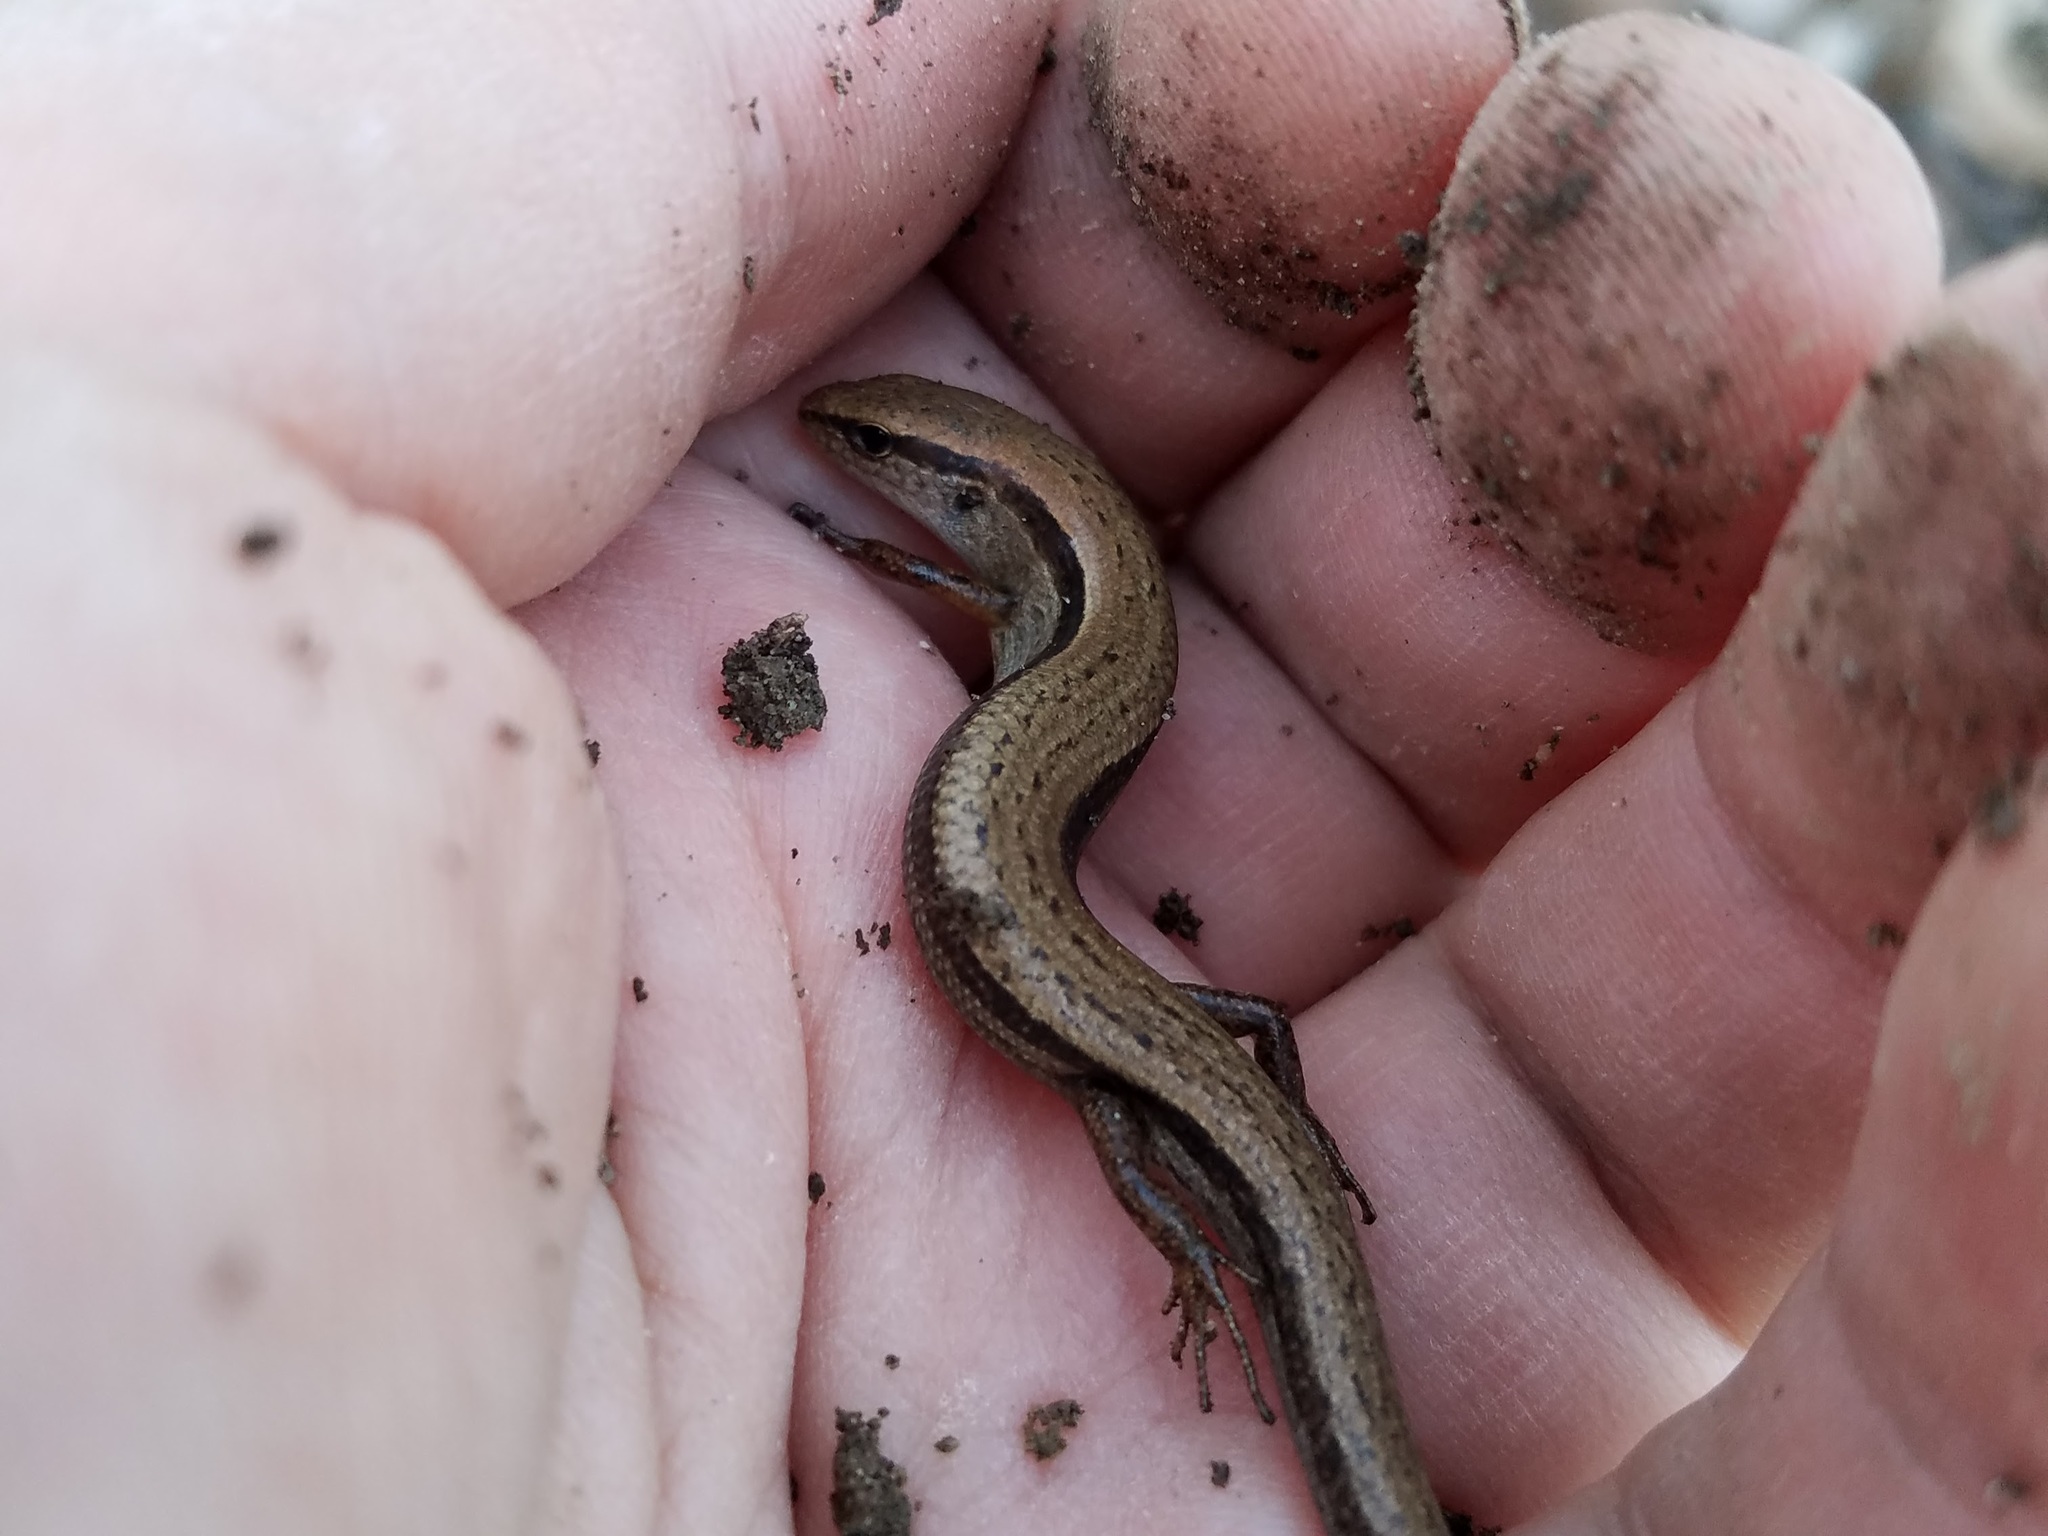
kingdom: Animalia
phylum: Chordata
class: Squamata
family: Scincidae
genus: Scincella
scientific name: Scincella lateralis
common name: Ground skink
